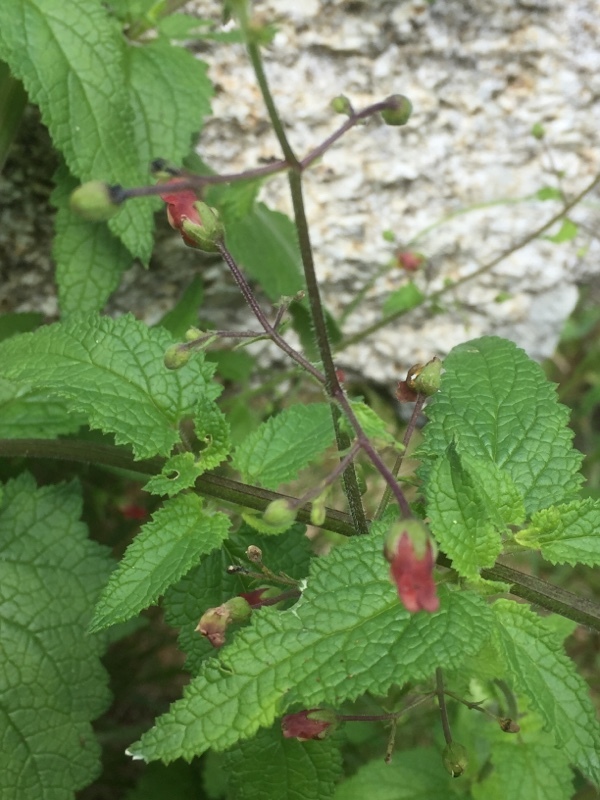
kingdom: Plantae
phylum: Tracheophyta
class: Magnoliopsida
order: Lamiales
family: Scrophulariaceae
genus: Scrophularia
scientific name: Scrophularia auriculata
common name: Water betony
